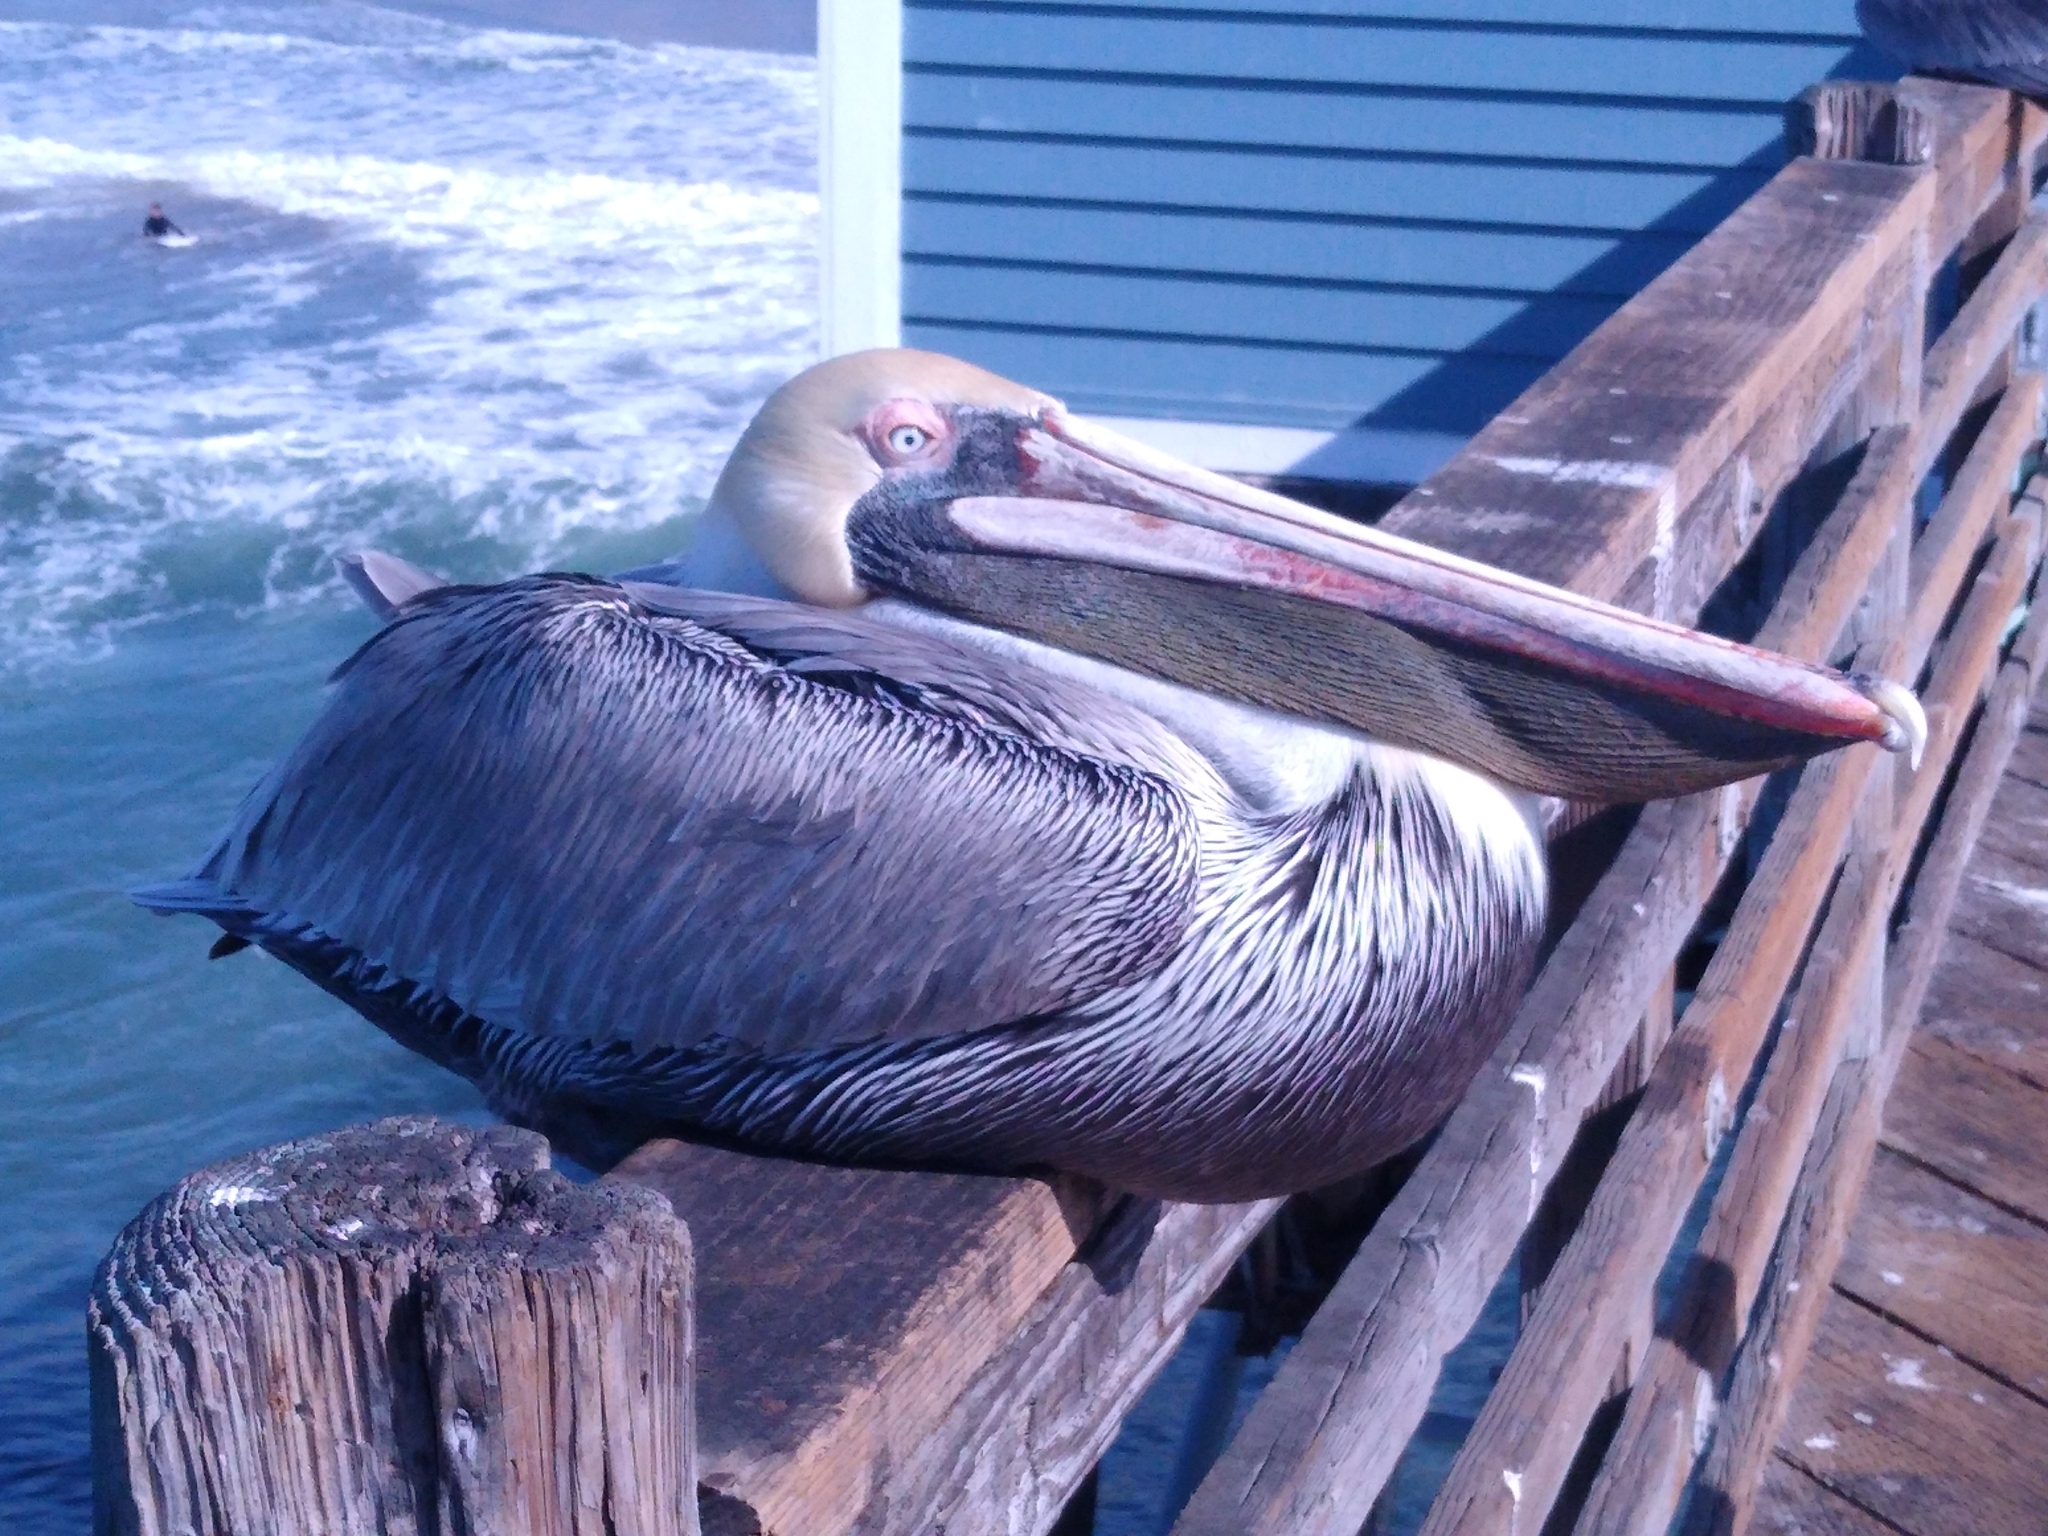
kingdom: Animalia
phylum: Chordata
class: Aves
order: Pelecaniformes
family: Pelecanidae
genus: Pelecanus
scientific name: Pelecanus occidentalis
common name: Brown pelican
